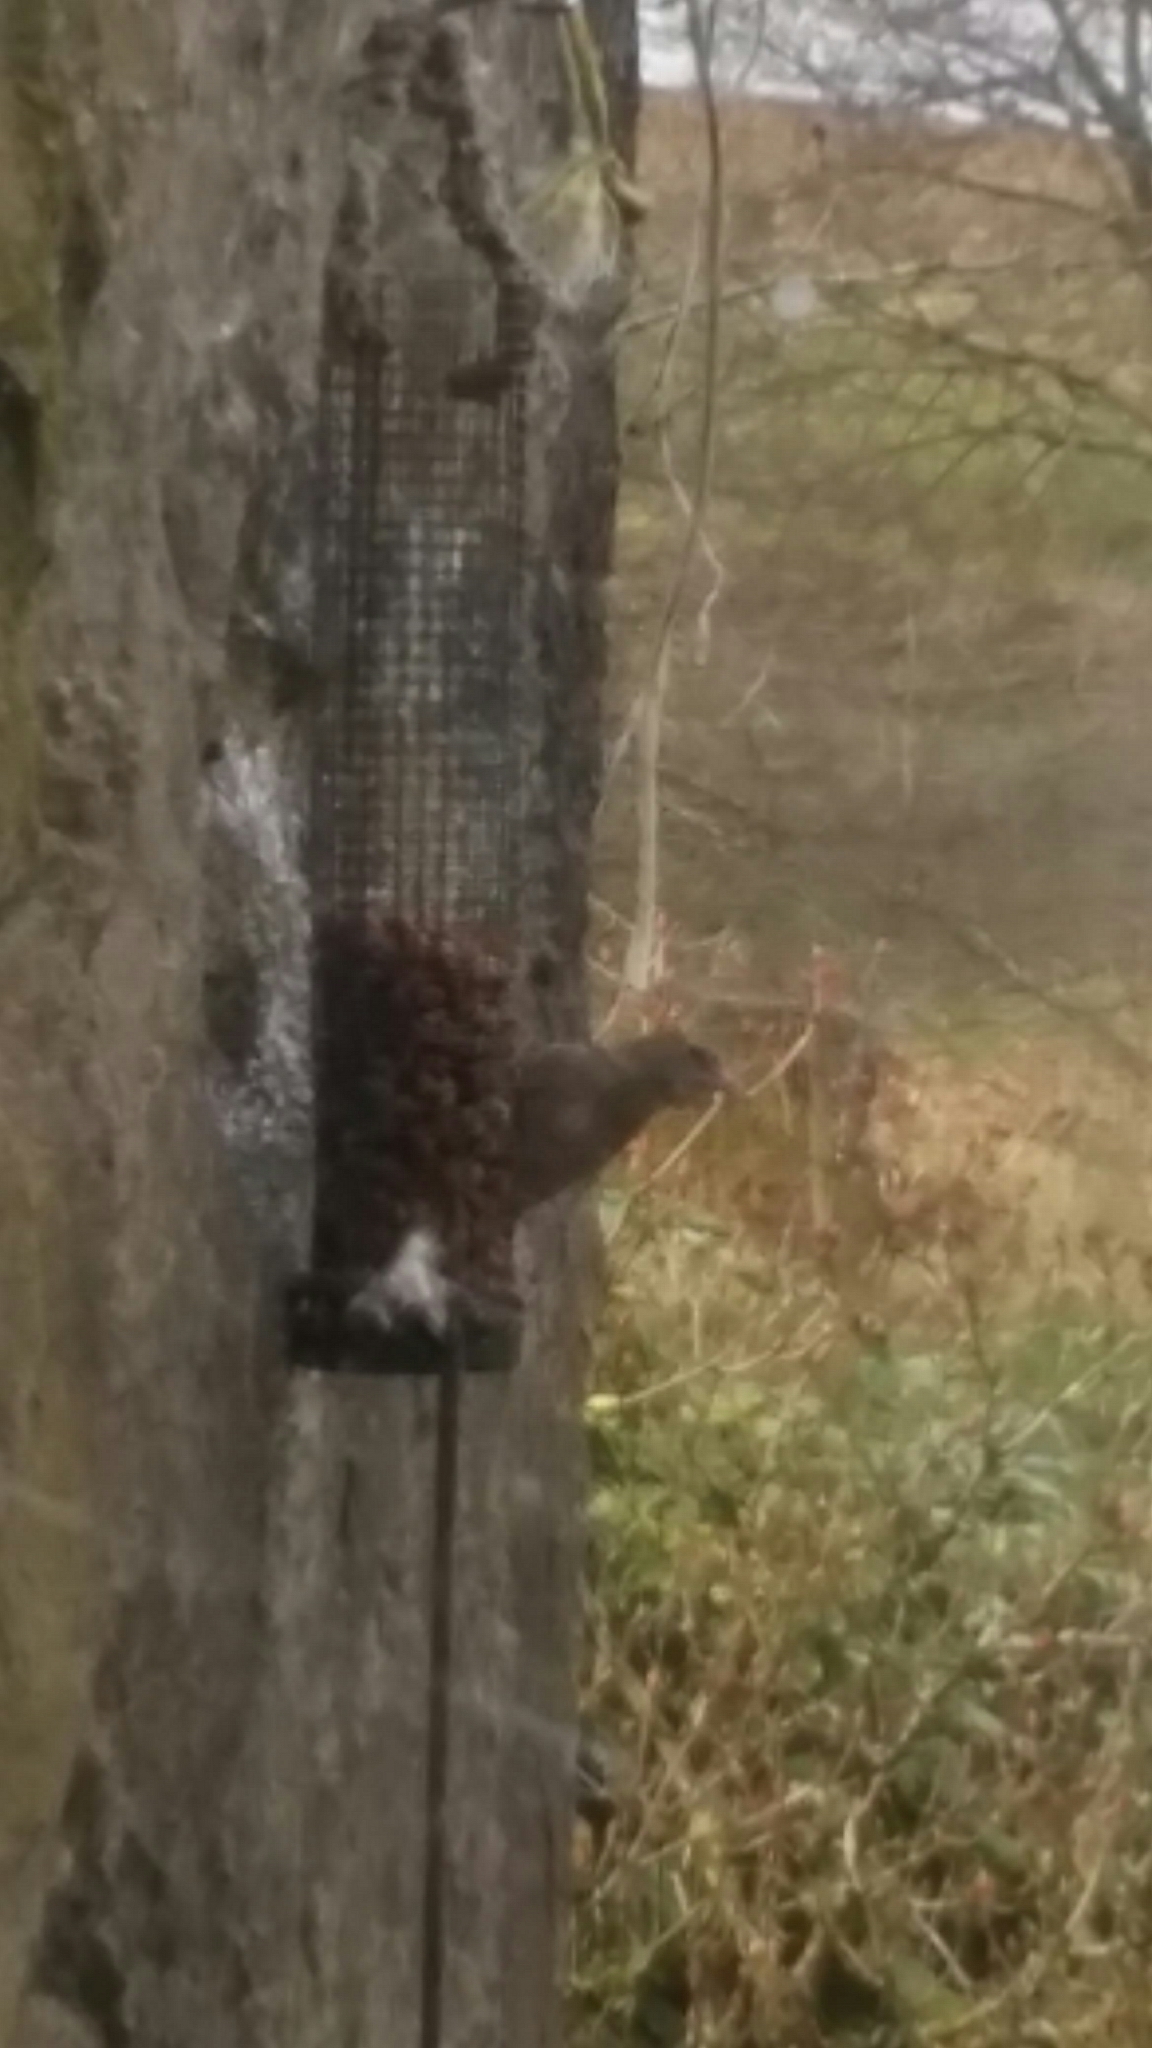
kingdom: Animalia
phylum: Chordata
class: Aves
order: Passeriformes
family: Fringillidae
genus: Fringilla
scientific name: Fringilla coelebs
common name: Common chaffinch
